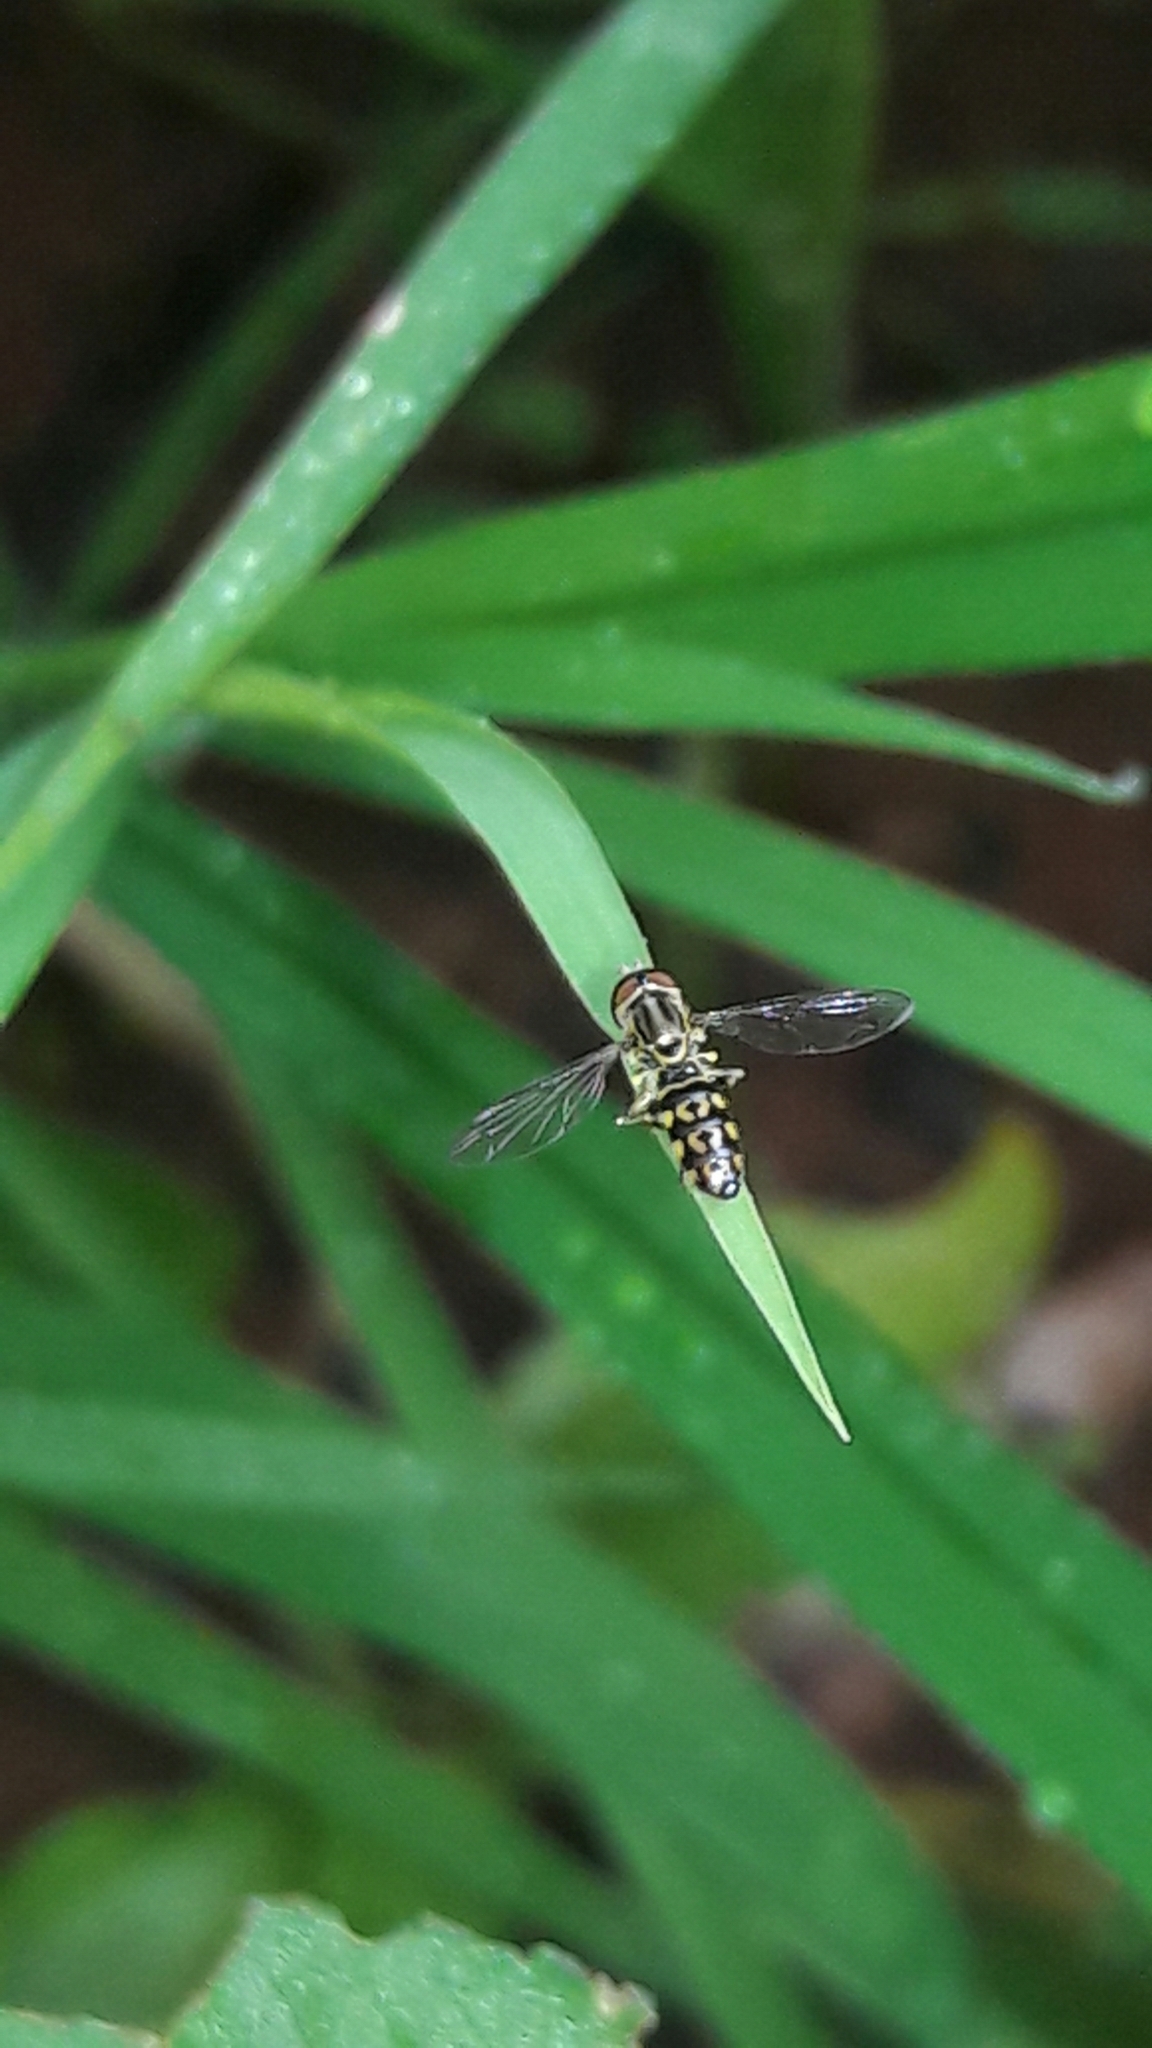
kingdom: Animalia
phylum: Arthropoda
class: Insecta
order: Diptera
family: Syrphidae
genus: Toxomerus
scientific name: Toxomerus virgulatus
